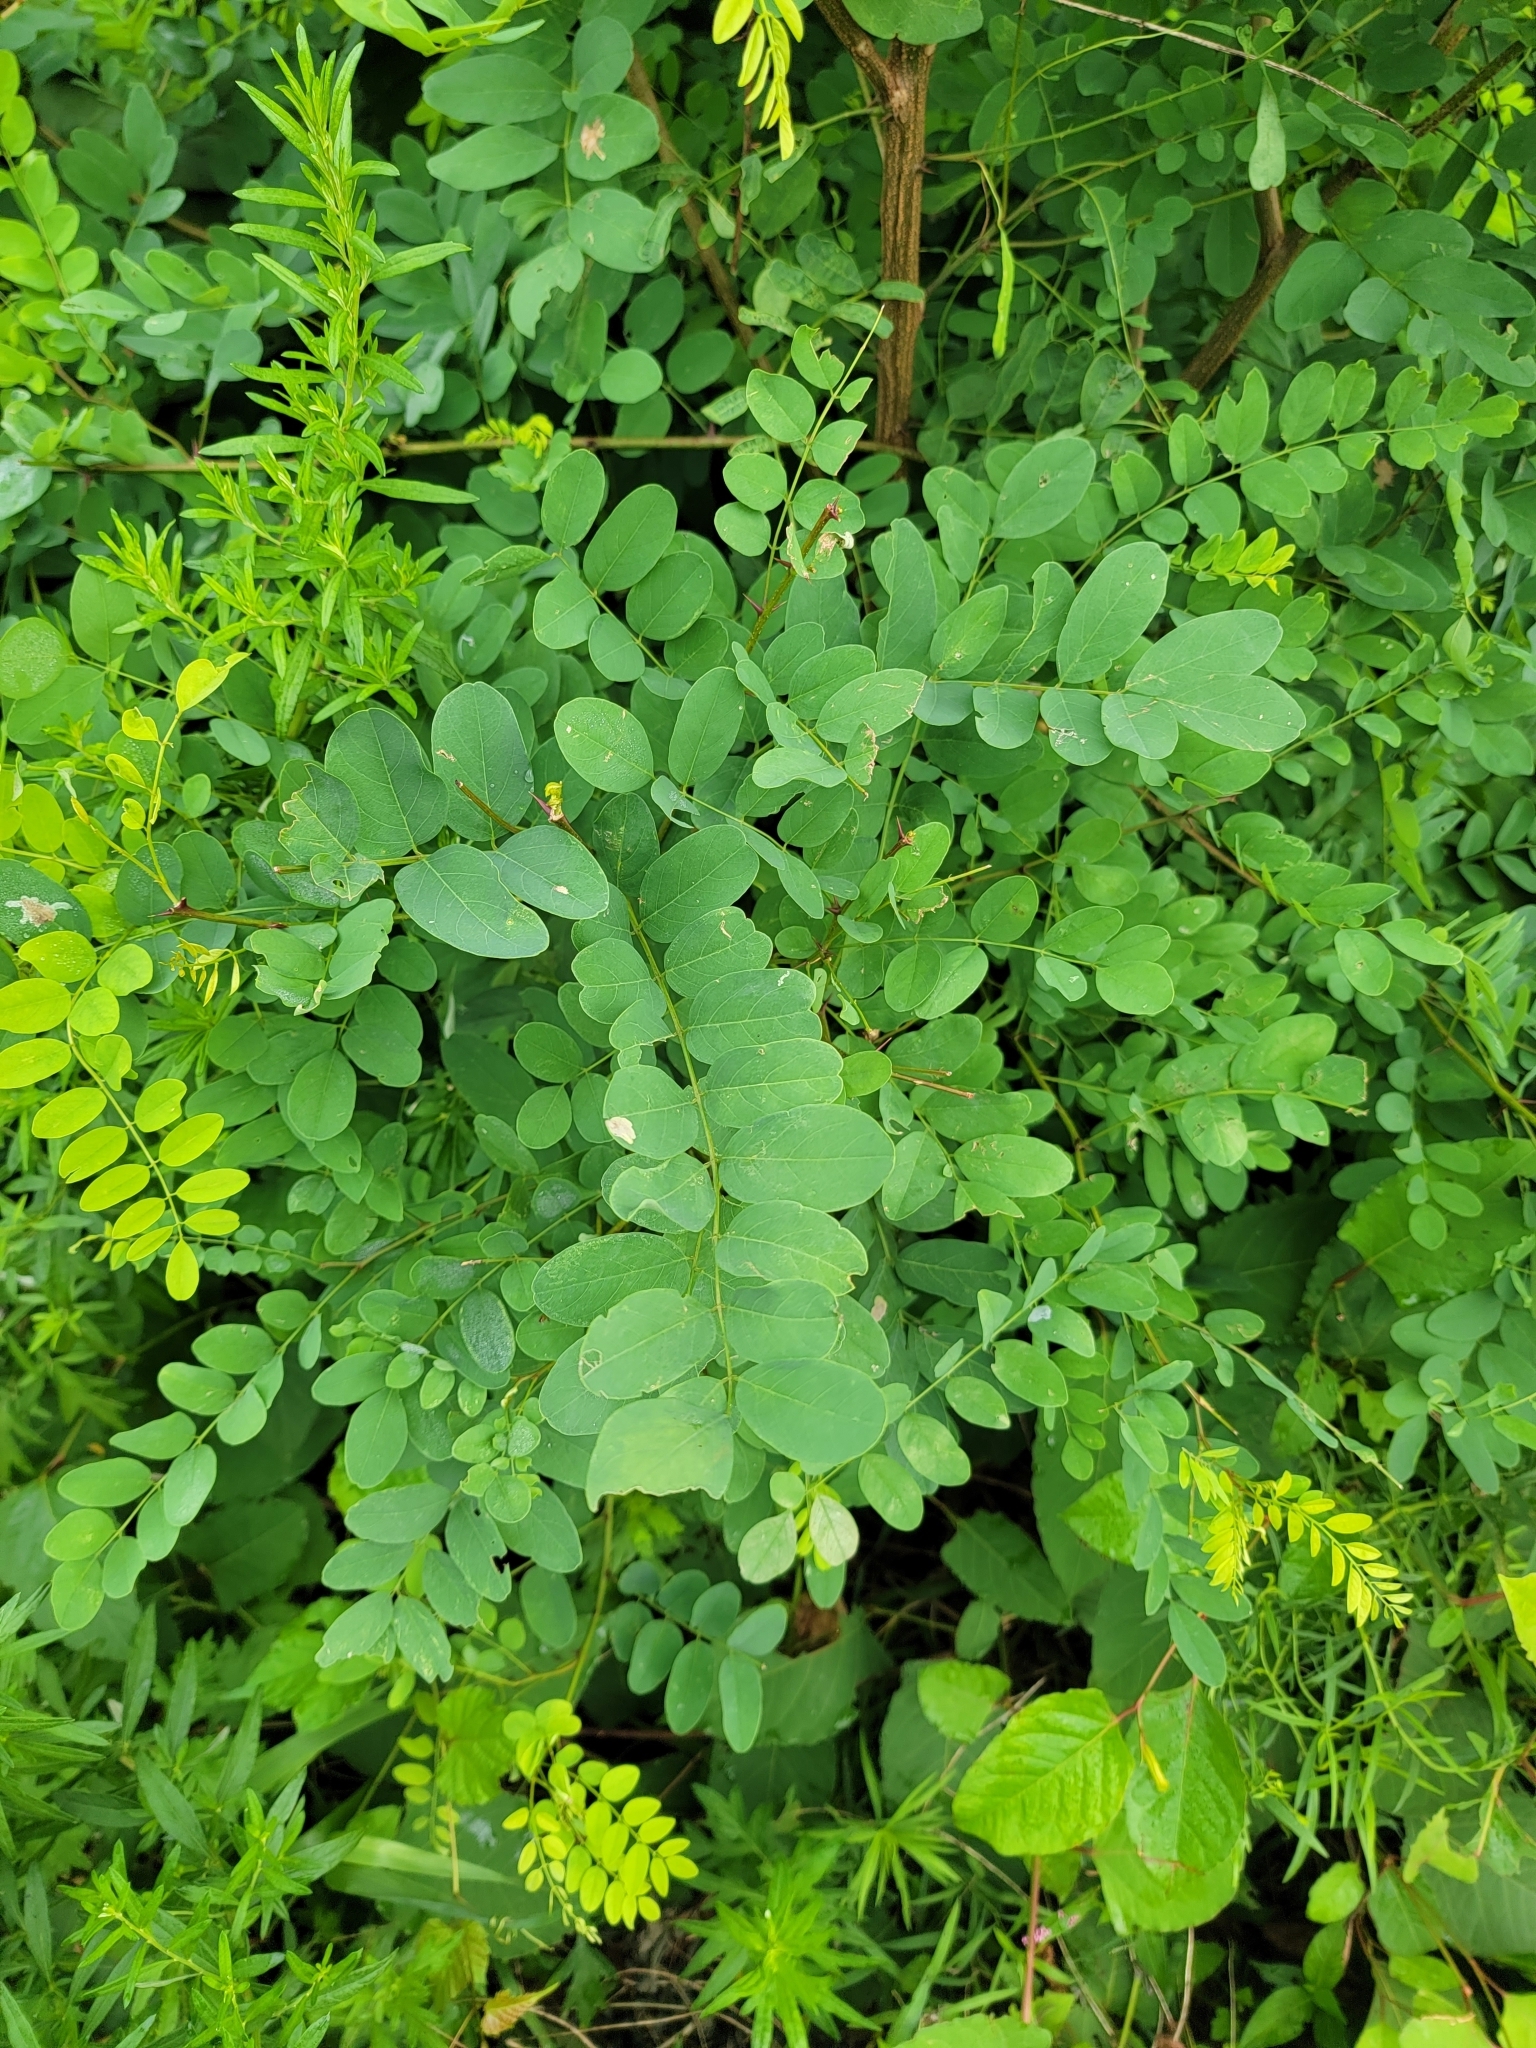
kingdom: Plantae
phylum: Tracheophyta
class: Magnoliopsida
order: Fabales
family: Fabaceae
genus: Robinia
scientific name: Robinia pseudoacacia
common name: Black locust
